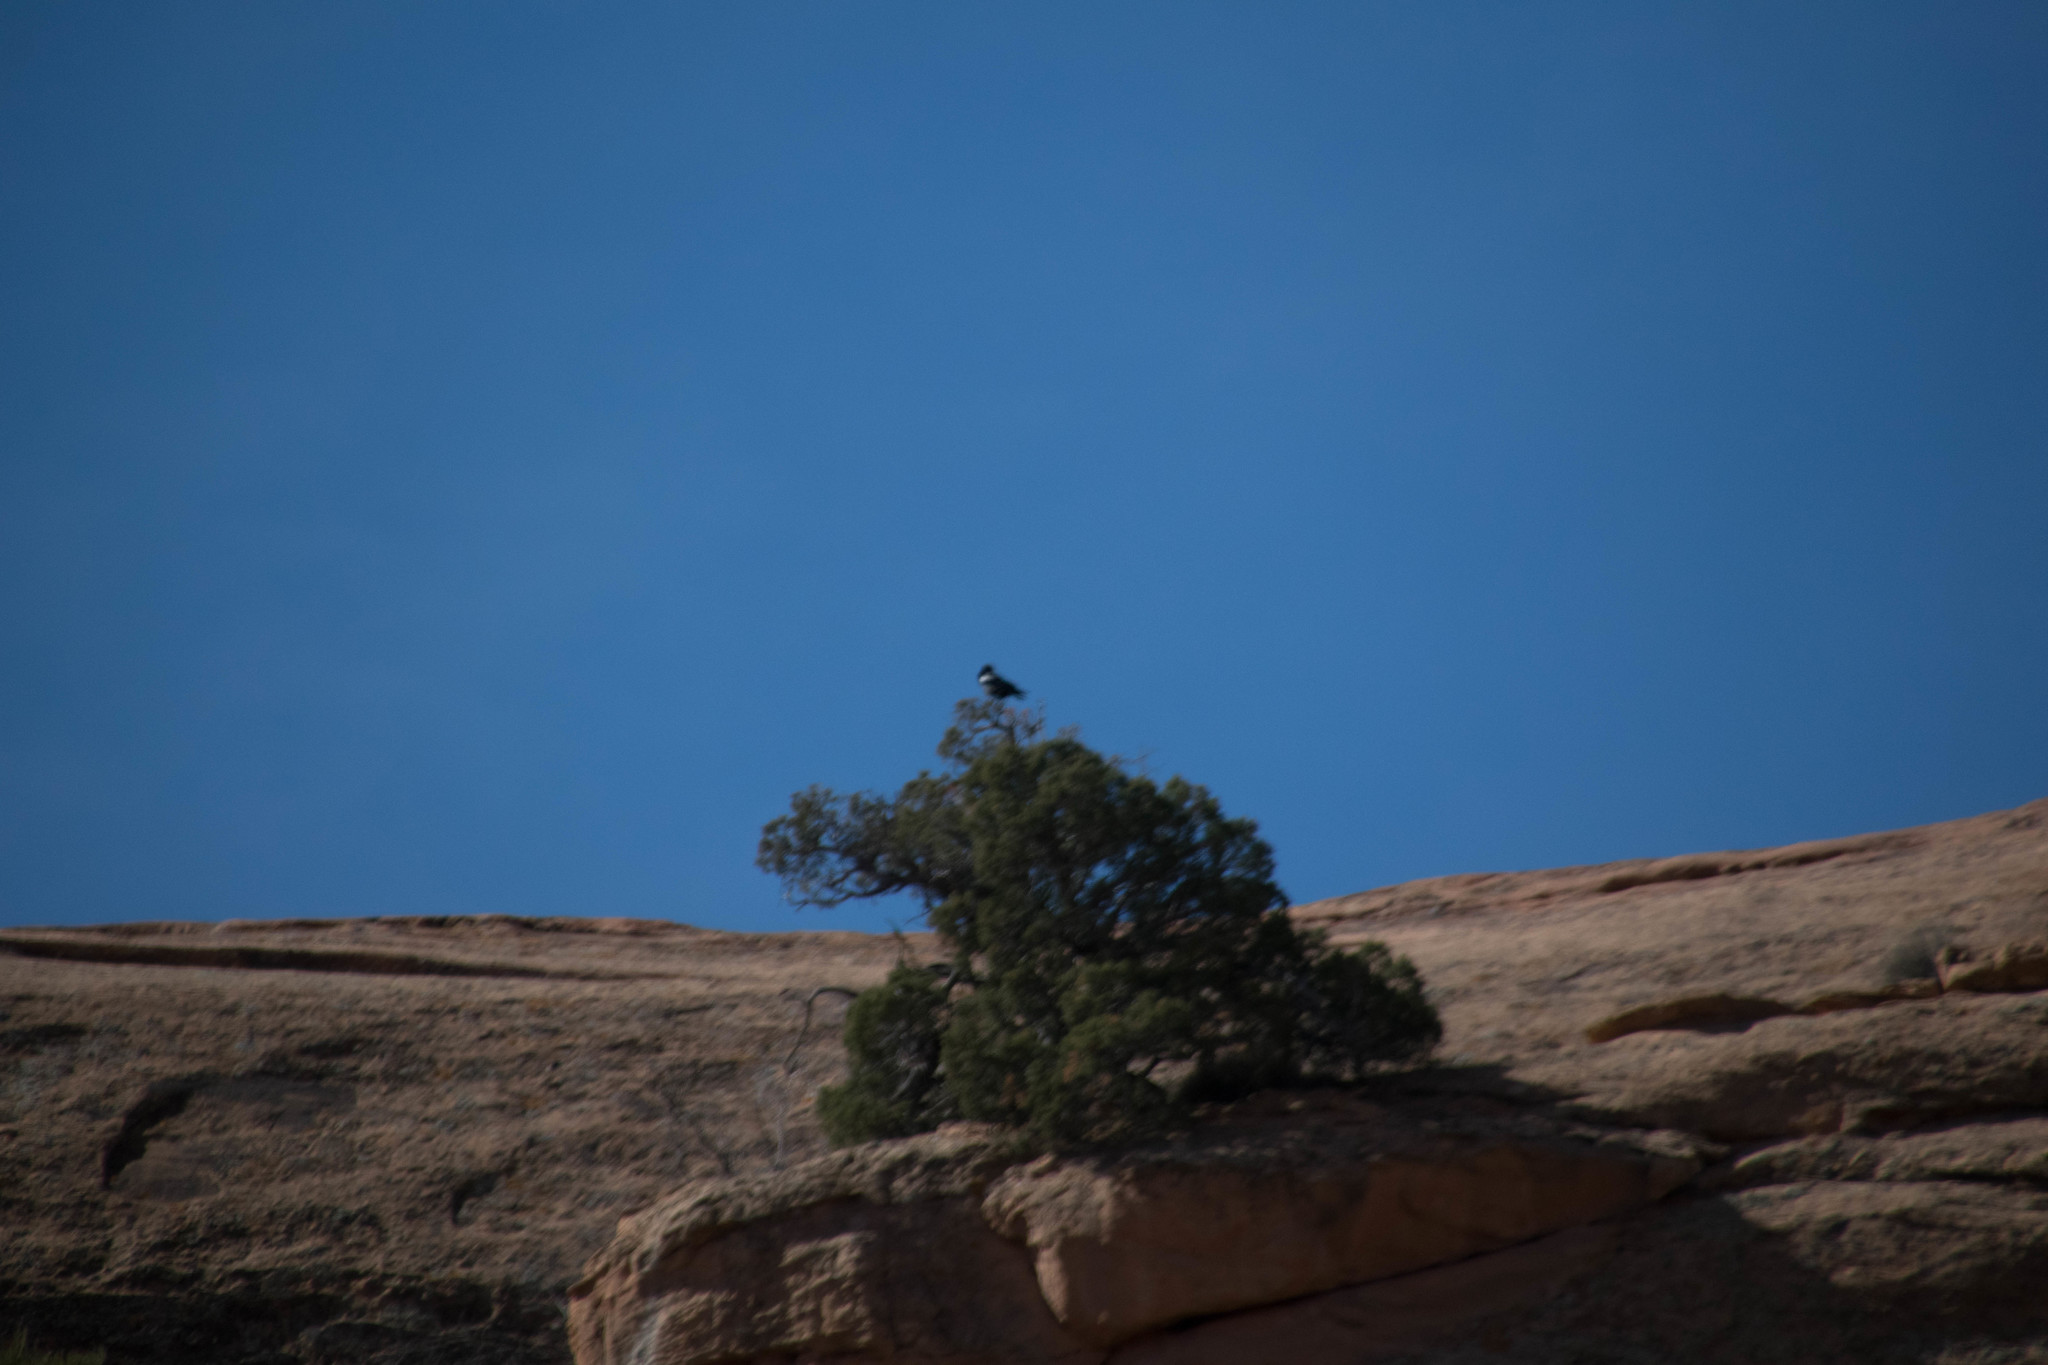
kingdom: Animalia
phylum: Chordata
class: Aves
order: Passeriformes
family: Corvidae
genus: Corvus
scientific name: Corvus corax
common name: Common raven
